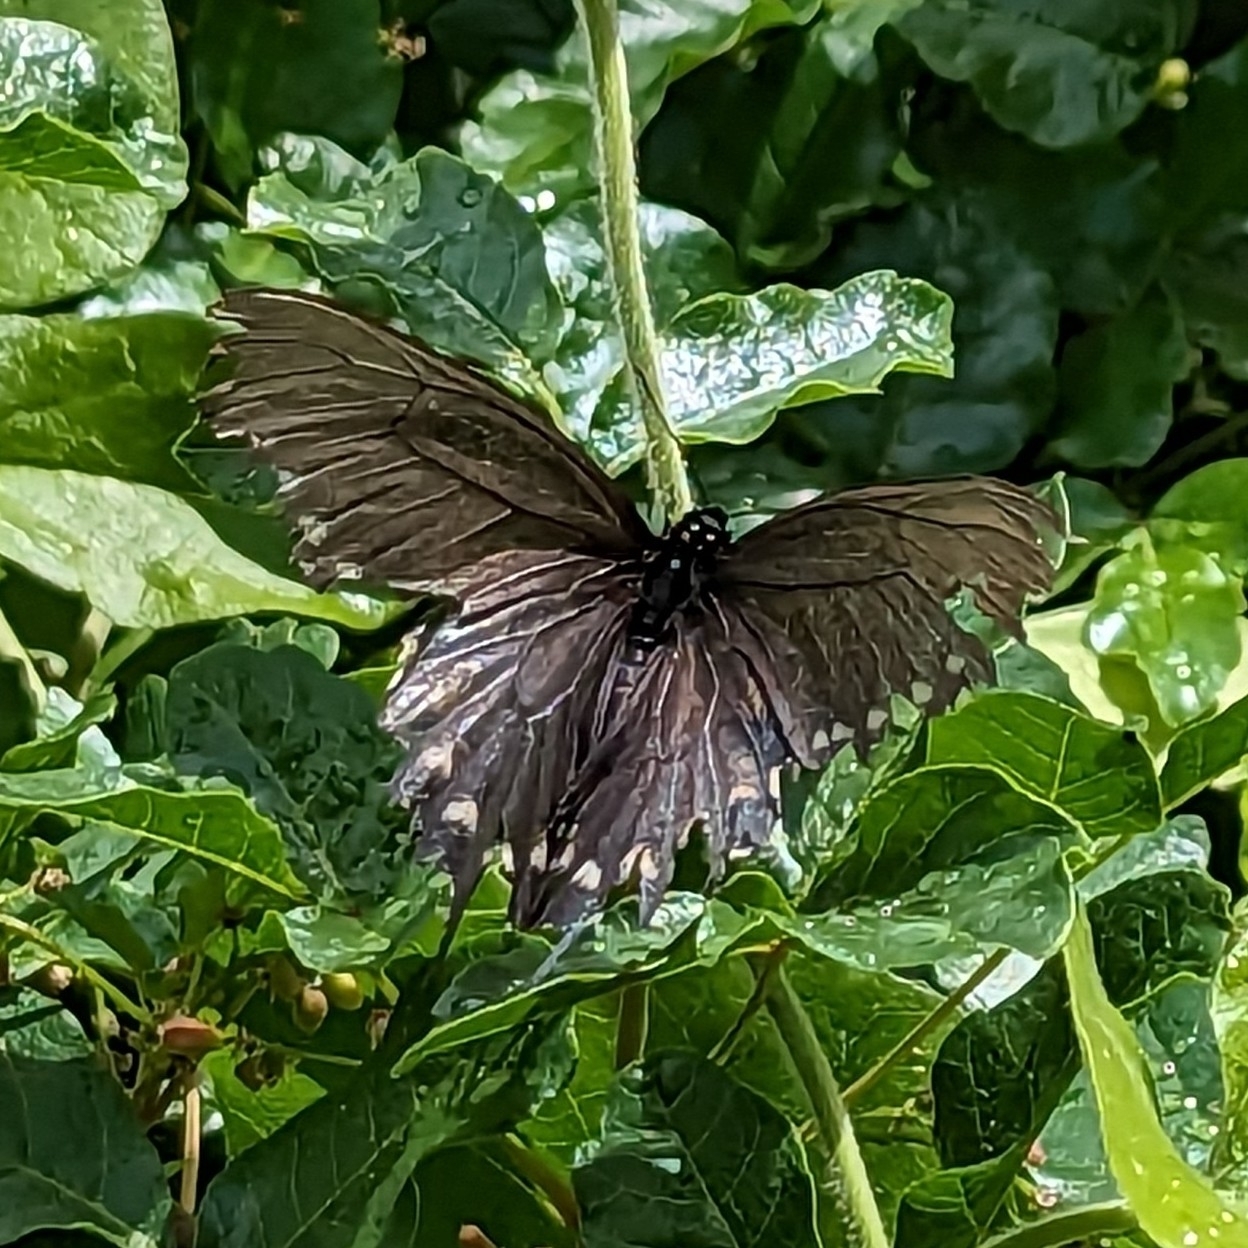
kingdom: Animalia
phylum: Arthropoda
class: Insecta
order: Lepidoptera
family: Papilionidae
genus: Battus
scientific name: Battus philenor
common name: Pipevine swallowtail
